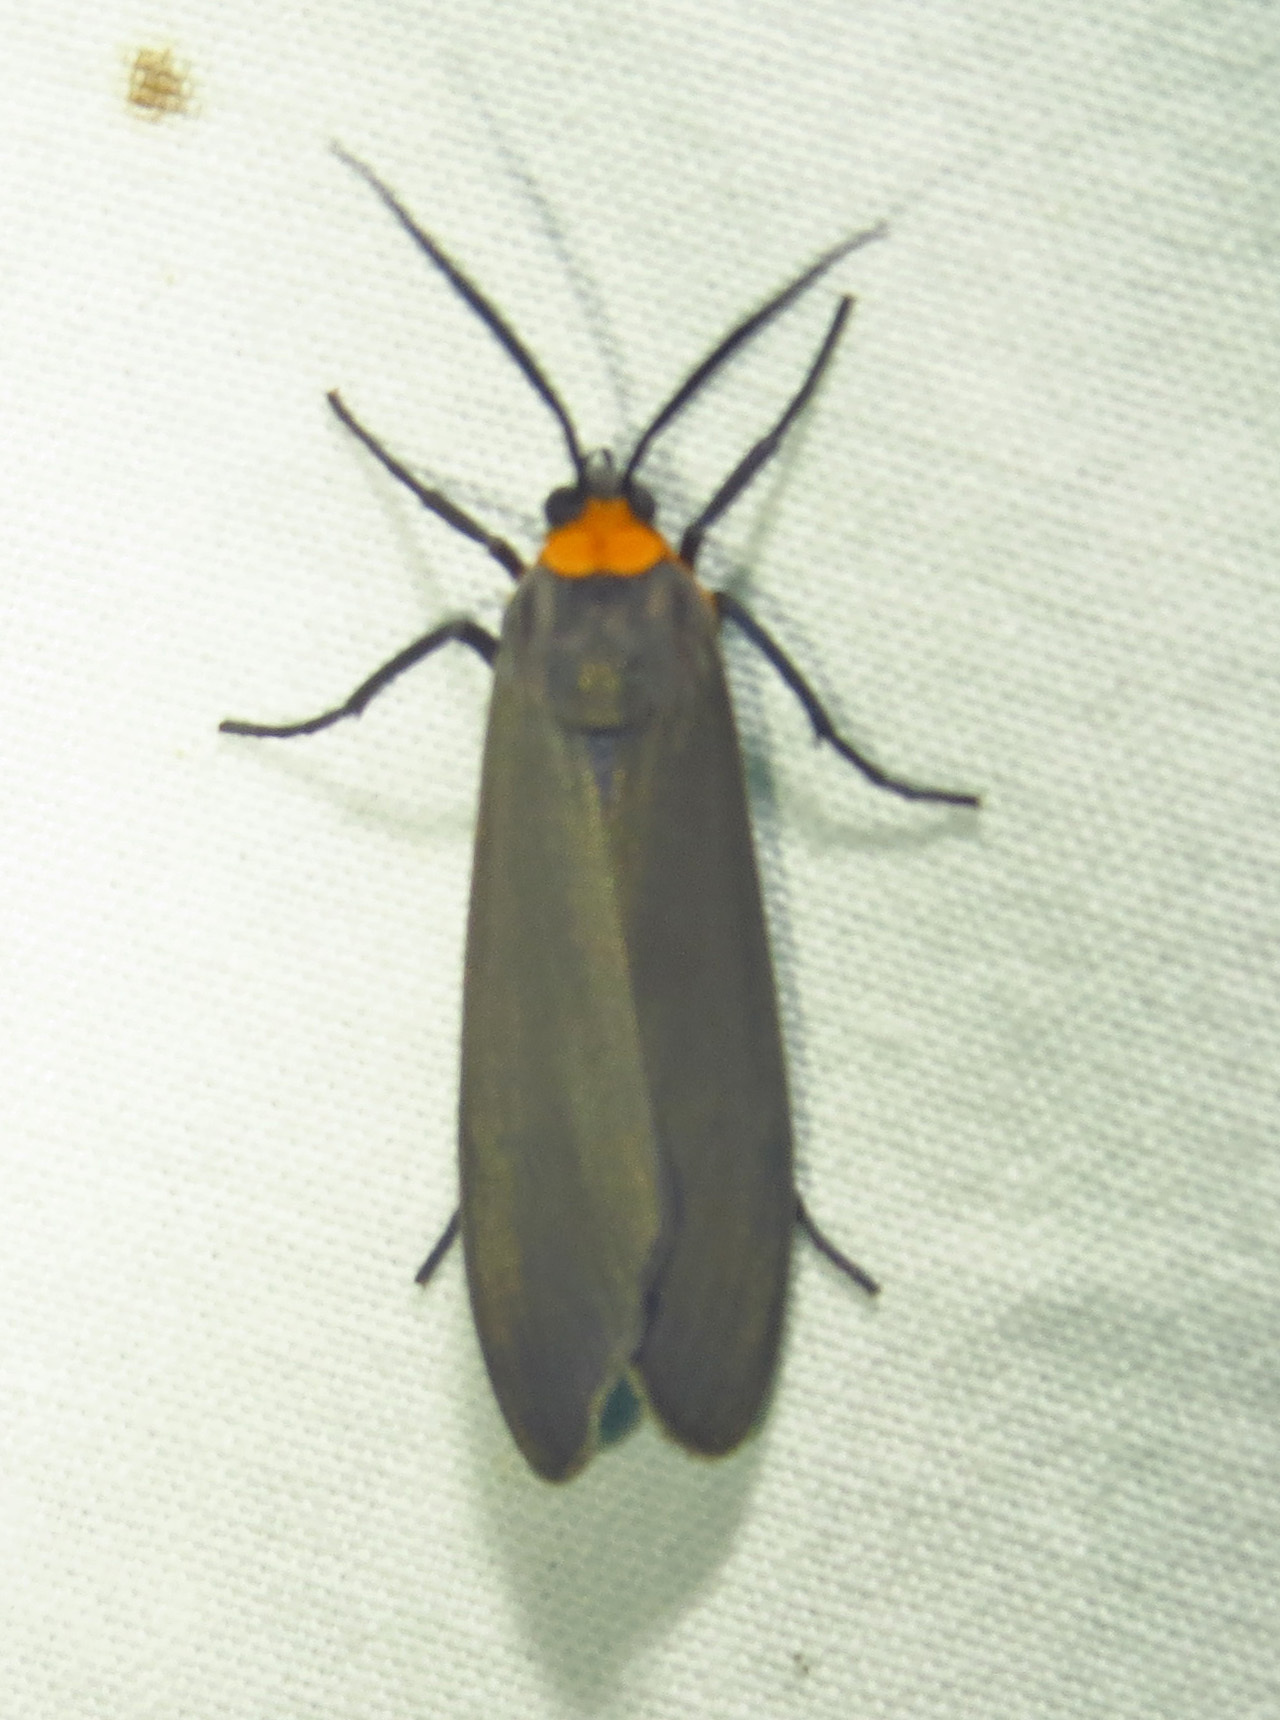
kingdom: Animalia
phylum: Arthropoda
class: Insecta
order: Lepidoptera
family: Erebidae
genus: Cisseps
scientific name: Cisseps fulvicollis
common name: Yellow-collared scape moth
